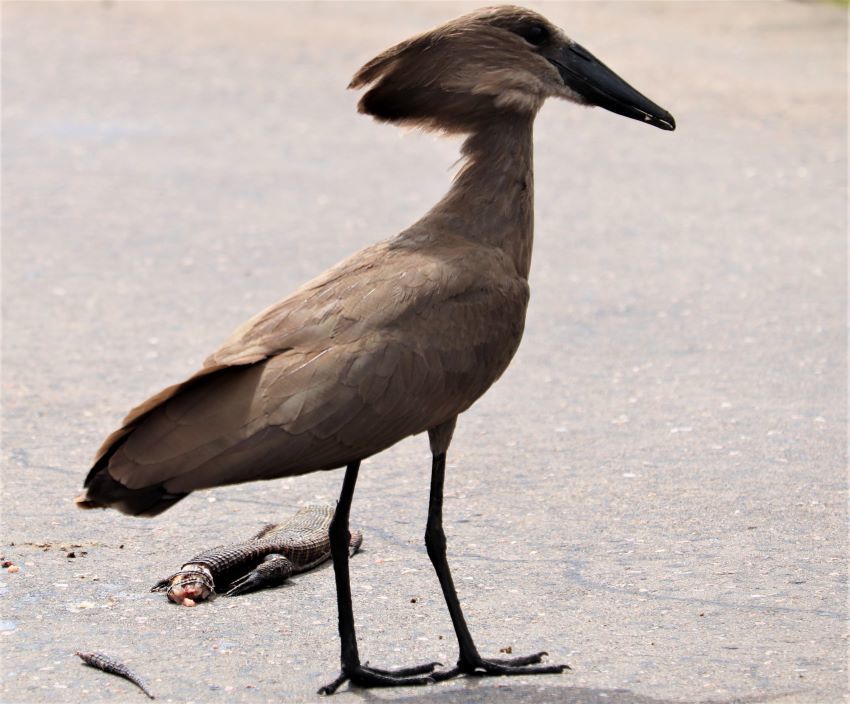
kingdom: Animalia
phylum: Chordata
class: Aves
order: Pelecaniformes
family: Scopidae
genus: Scopus
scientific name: Scopus umbretta
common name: Hamerkop
